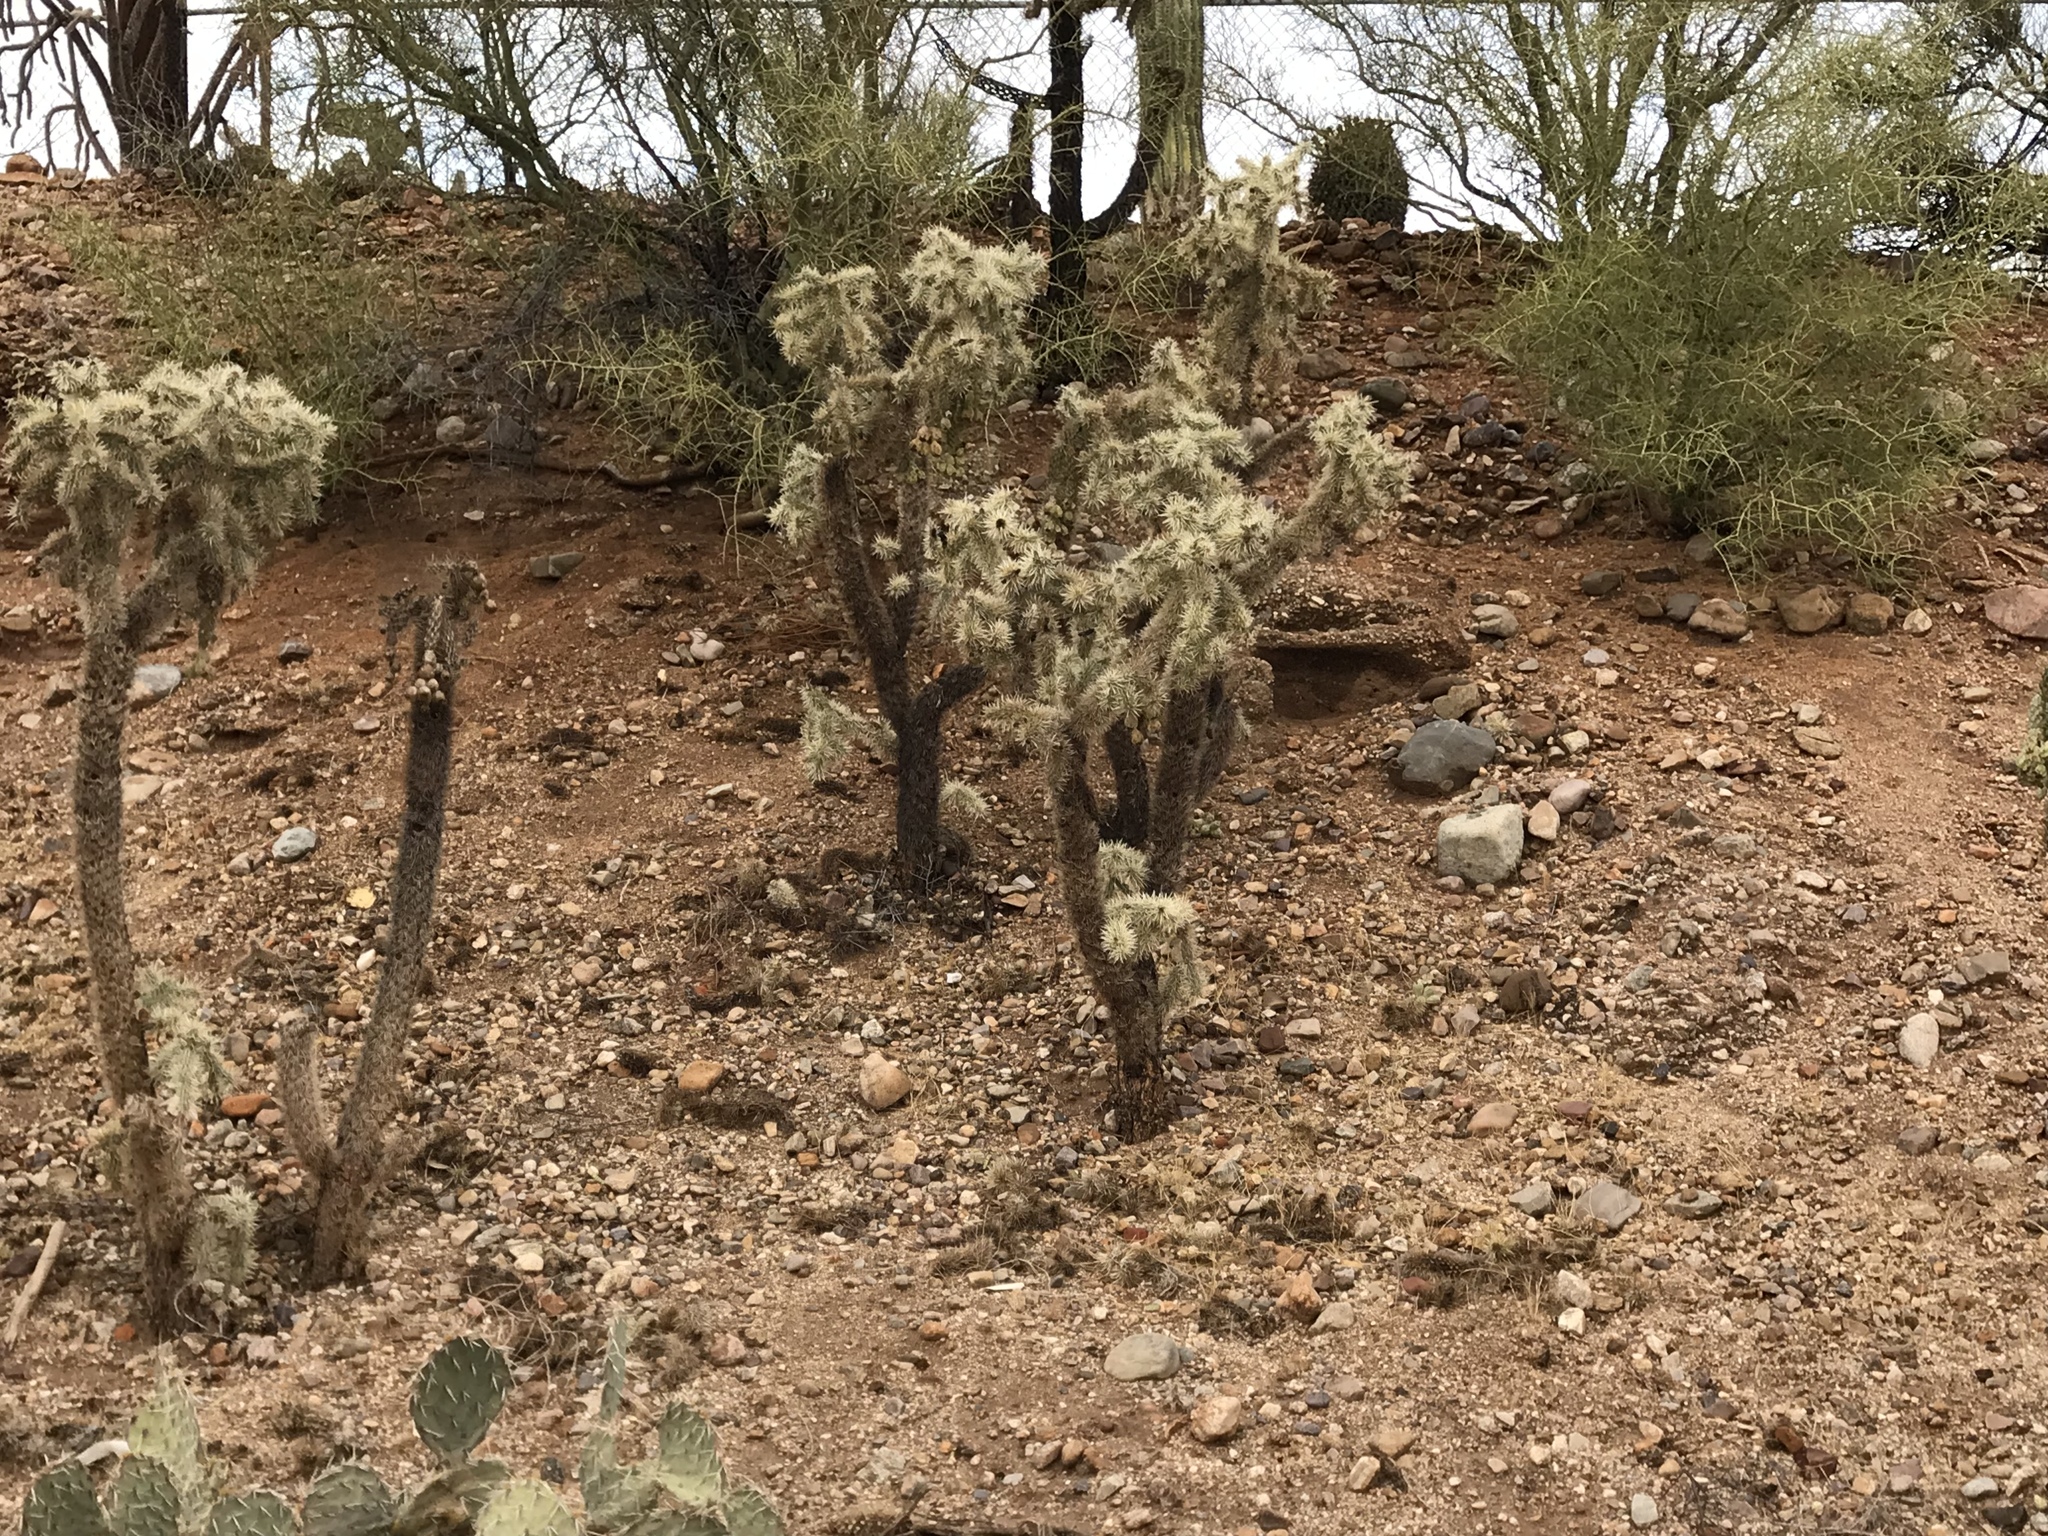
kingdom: Plantae
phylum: Tracheophyta
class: Magnoliopsida
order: Caryophyllales
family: Cactaceae
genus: Cylindropuntia
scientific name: Cylindropuntia fulgida
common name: Jumping cholla
